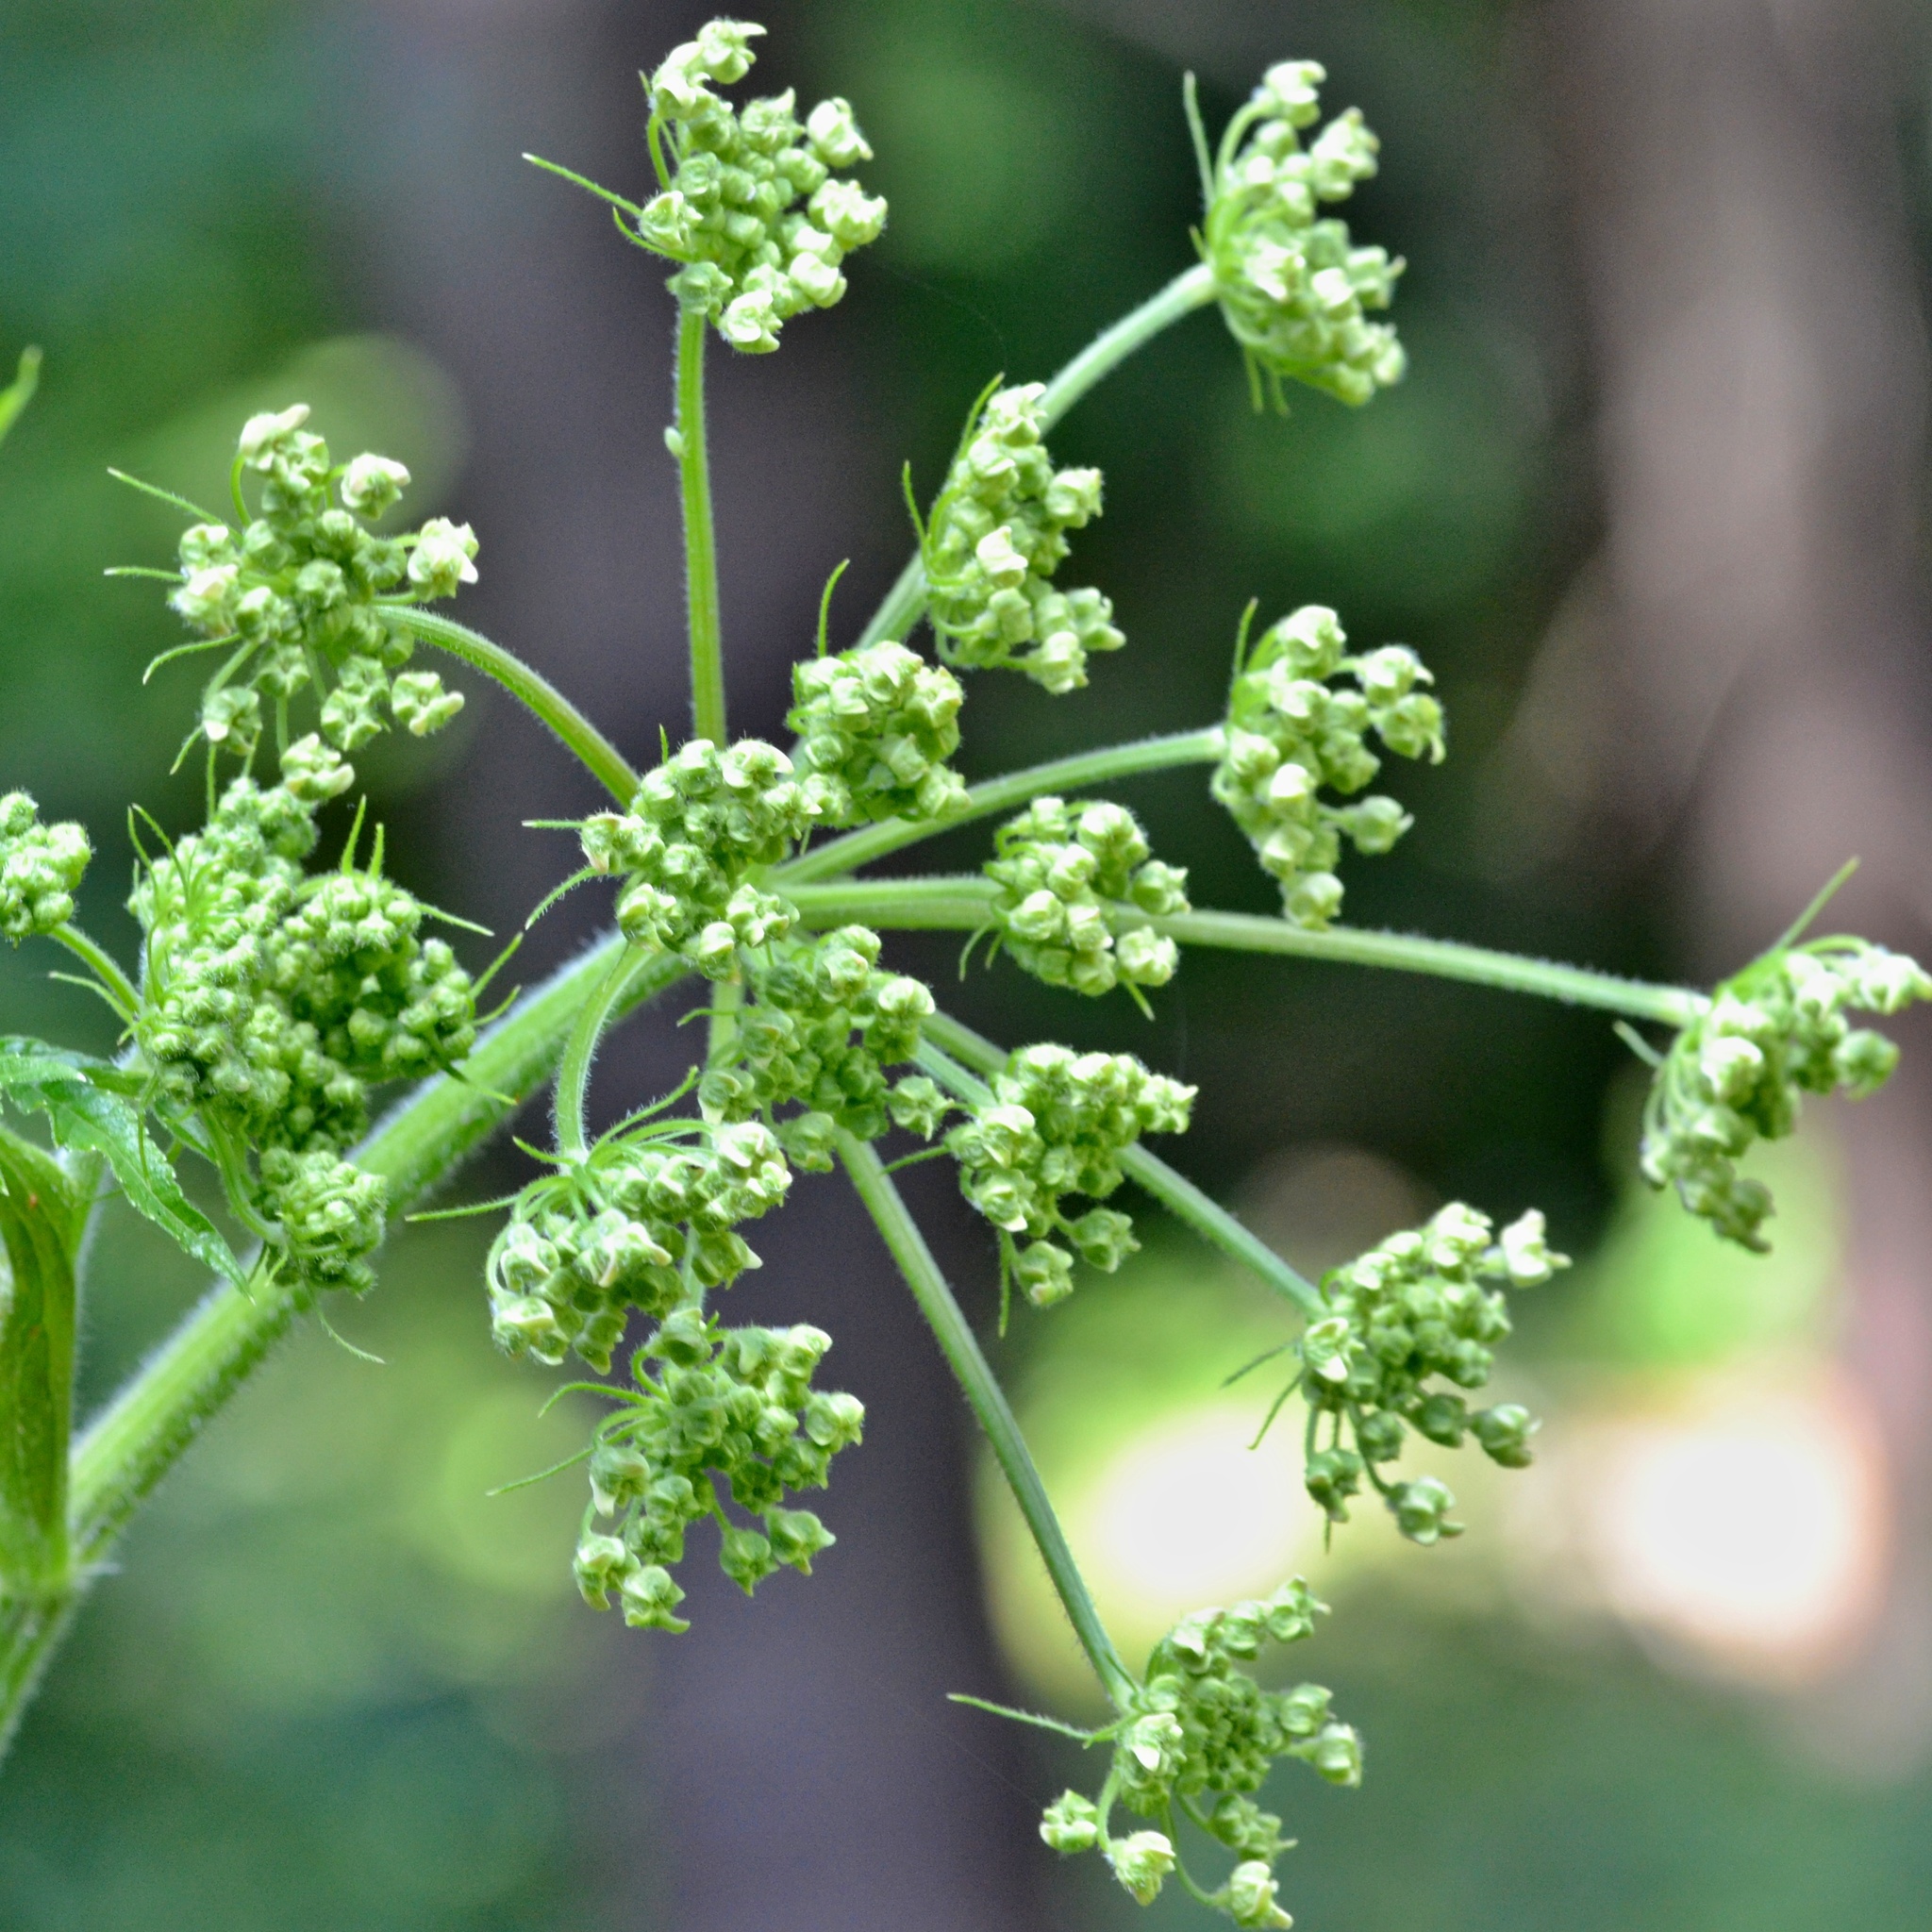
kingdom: Plantae
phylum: Tracheophyta
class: Magnoliopsida
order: Apiales
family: Apiaceae
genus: Heracleum
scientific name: Heracleum sphondylium
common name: Hogweed
